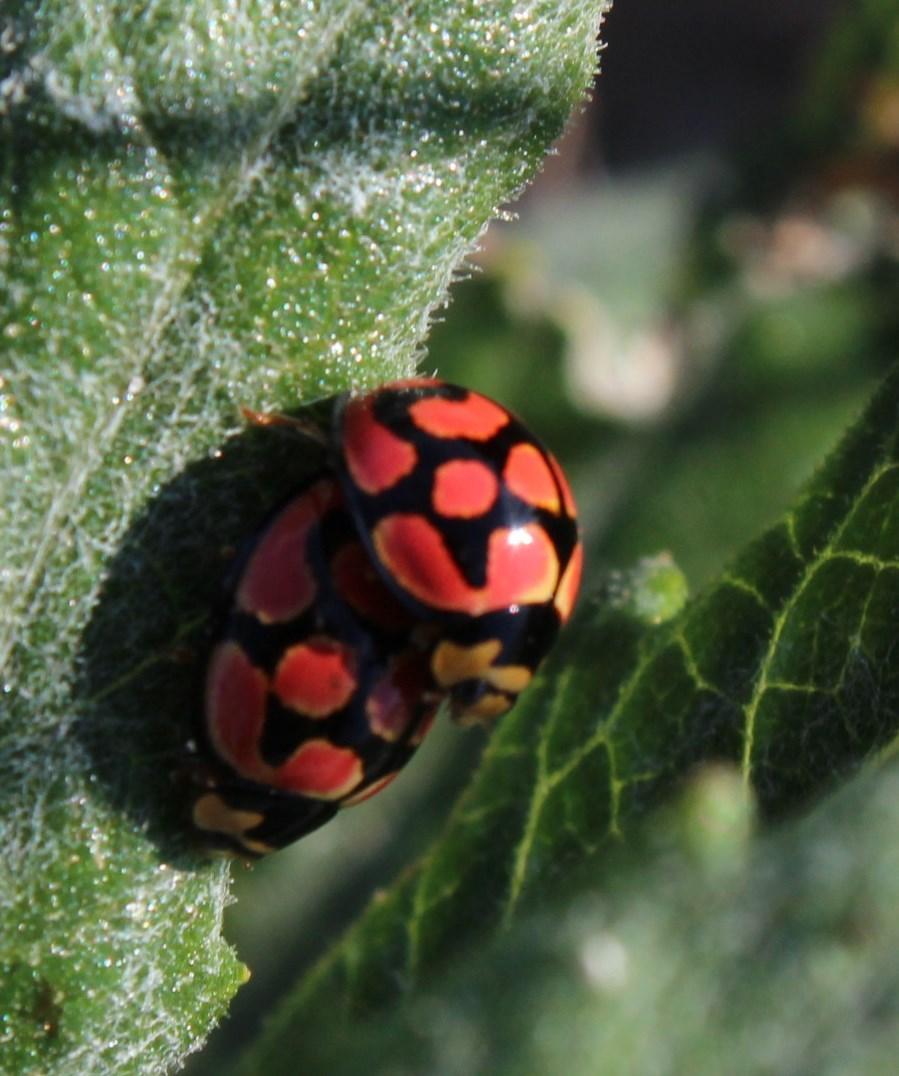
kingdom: Animalia
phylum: Arthropoda
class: Insecta
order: Coleoptera
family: Coccinellidae
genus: Cheilomenes
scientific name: Cheilomenes lunata
